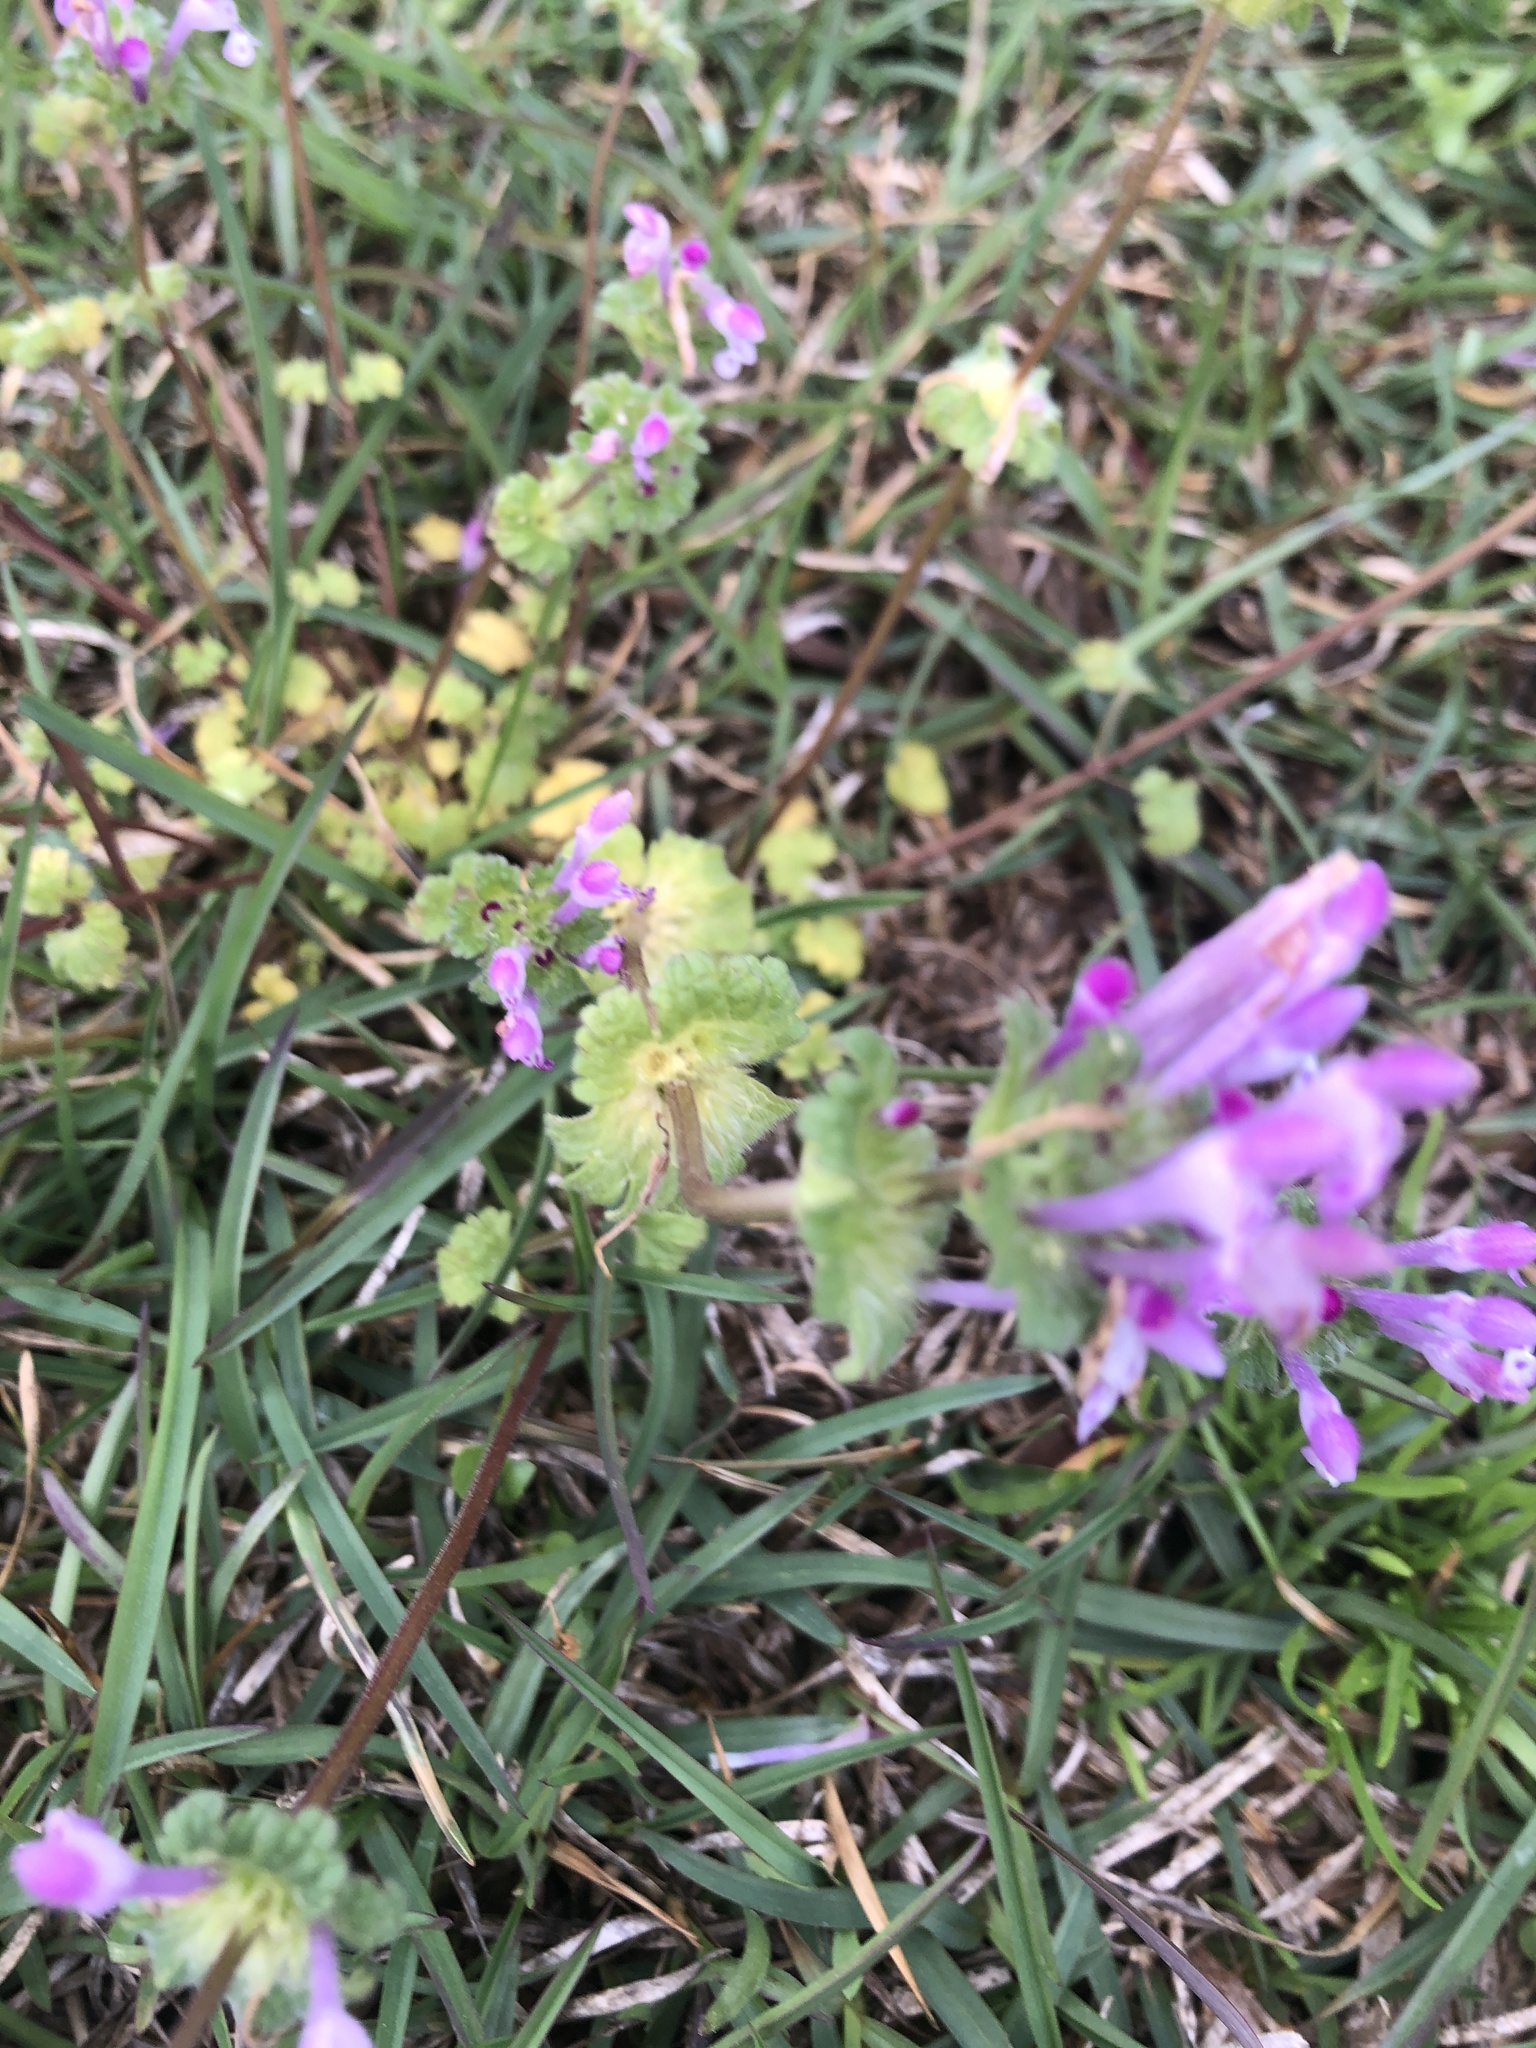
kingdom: Plantae
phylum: Tracheophyta
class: Magnoliopsida
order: Lamiales
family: Lamiaceae
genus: Lamium
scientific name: Lamium amplexicaule
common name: Henbit dead-nettle
